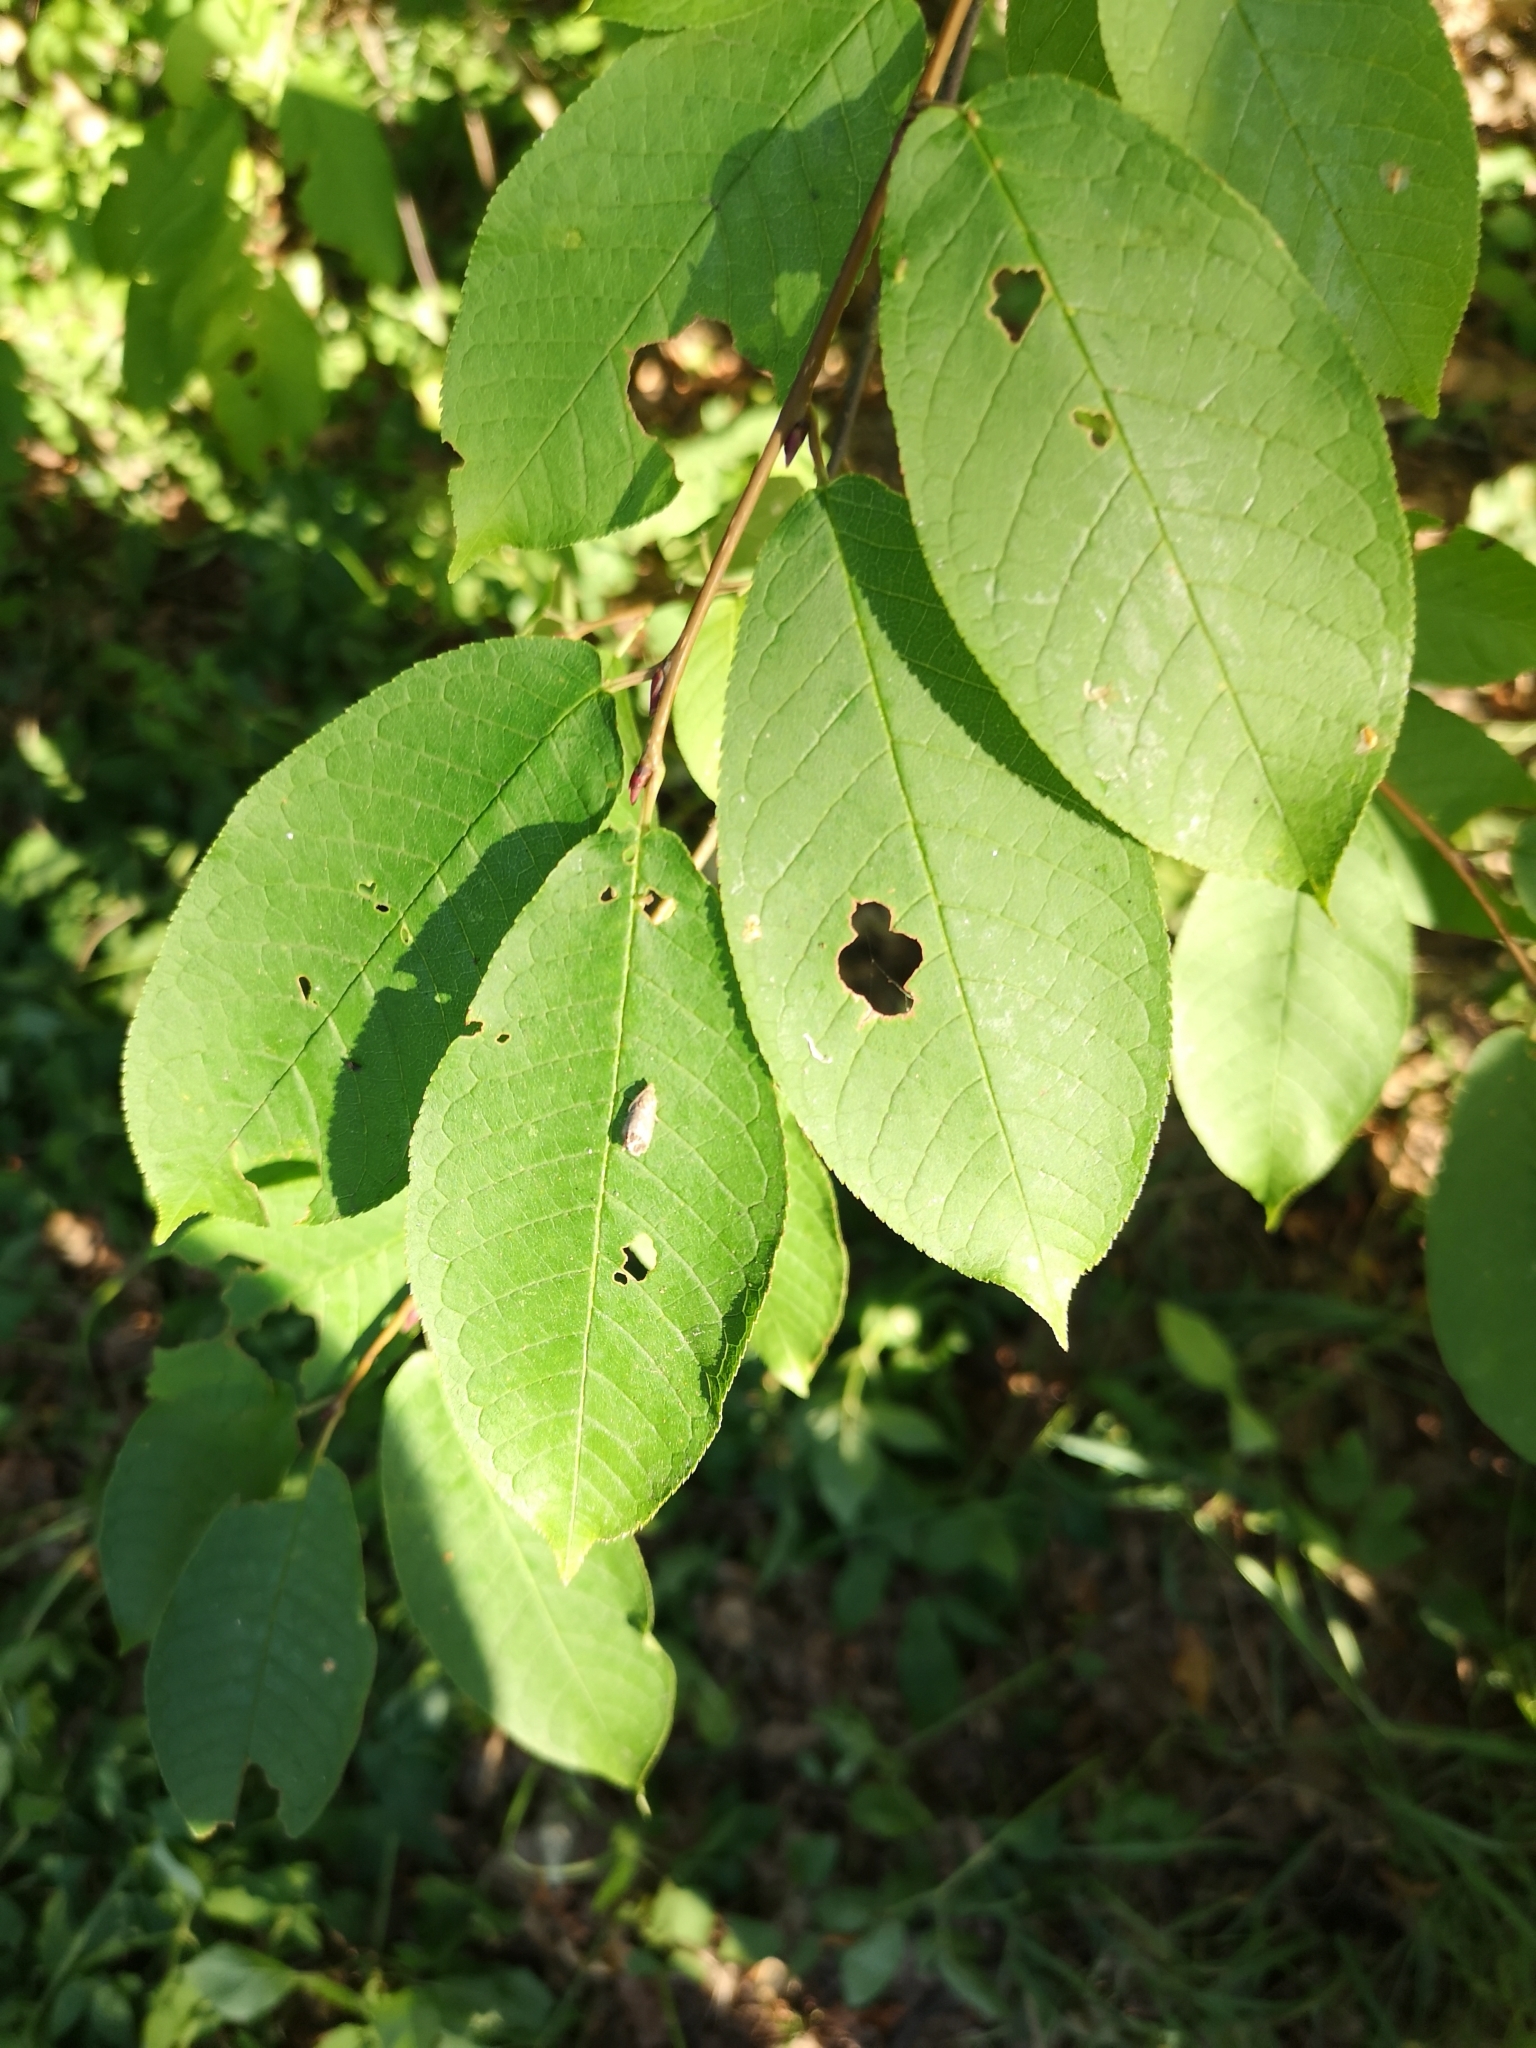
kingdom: Plantae
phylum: Tracheophyta
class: Magnoliopsida
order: Rosales
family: Rosaceae
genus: Prunus
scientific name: Prunus padus
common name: Bird cherry
